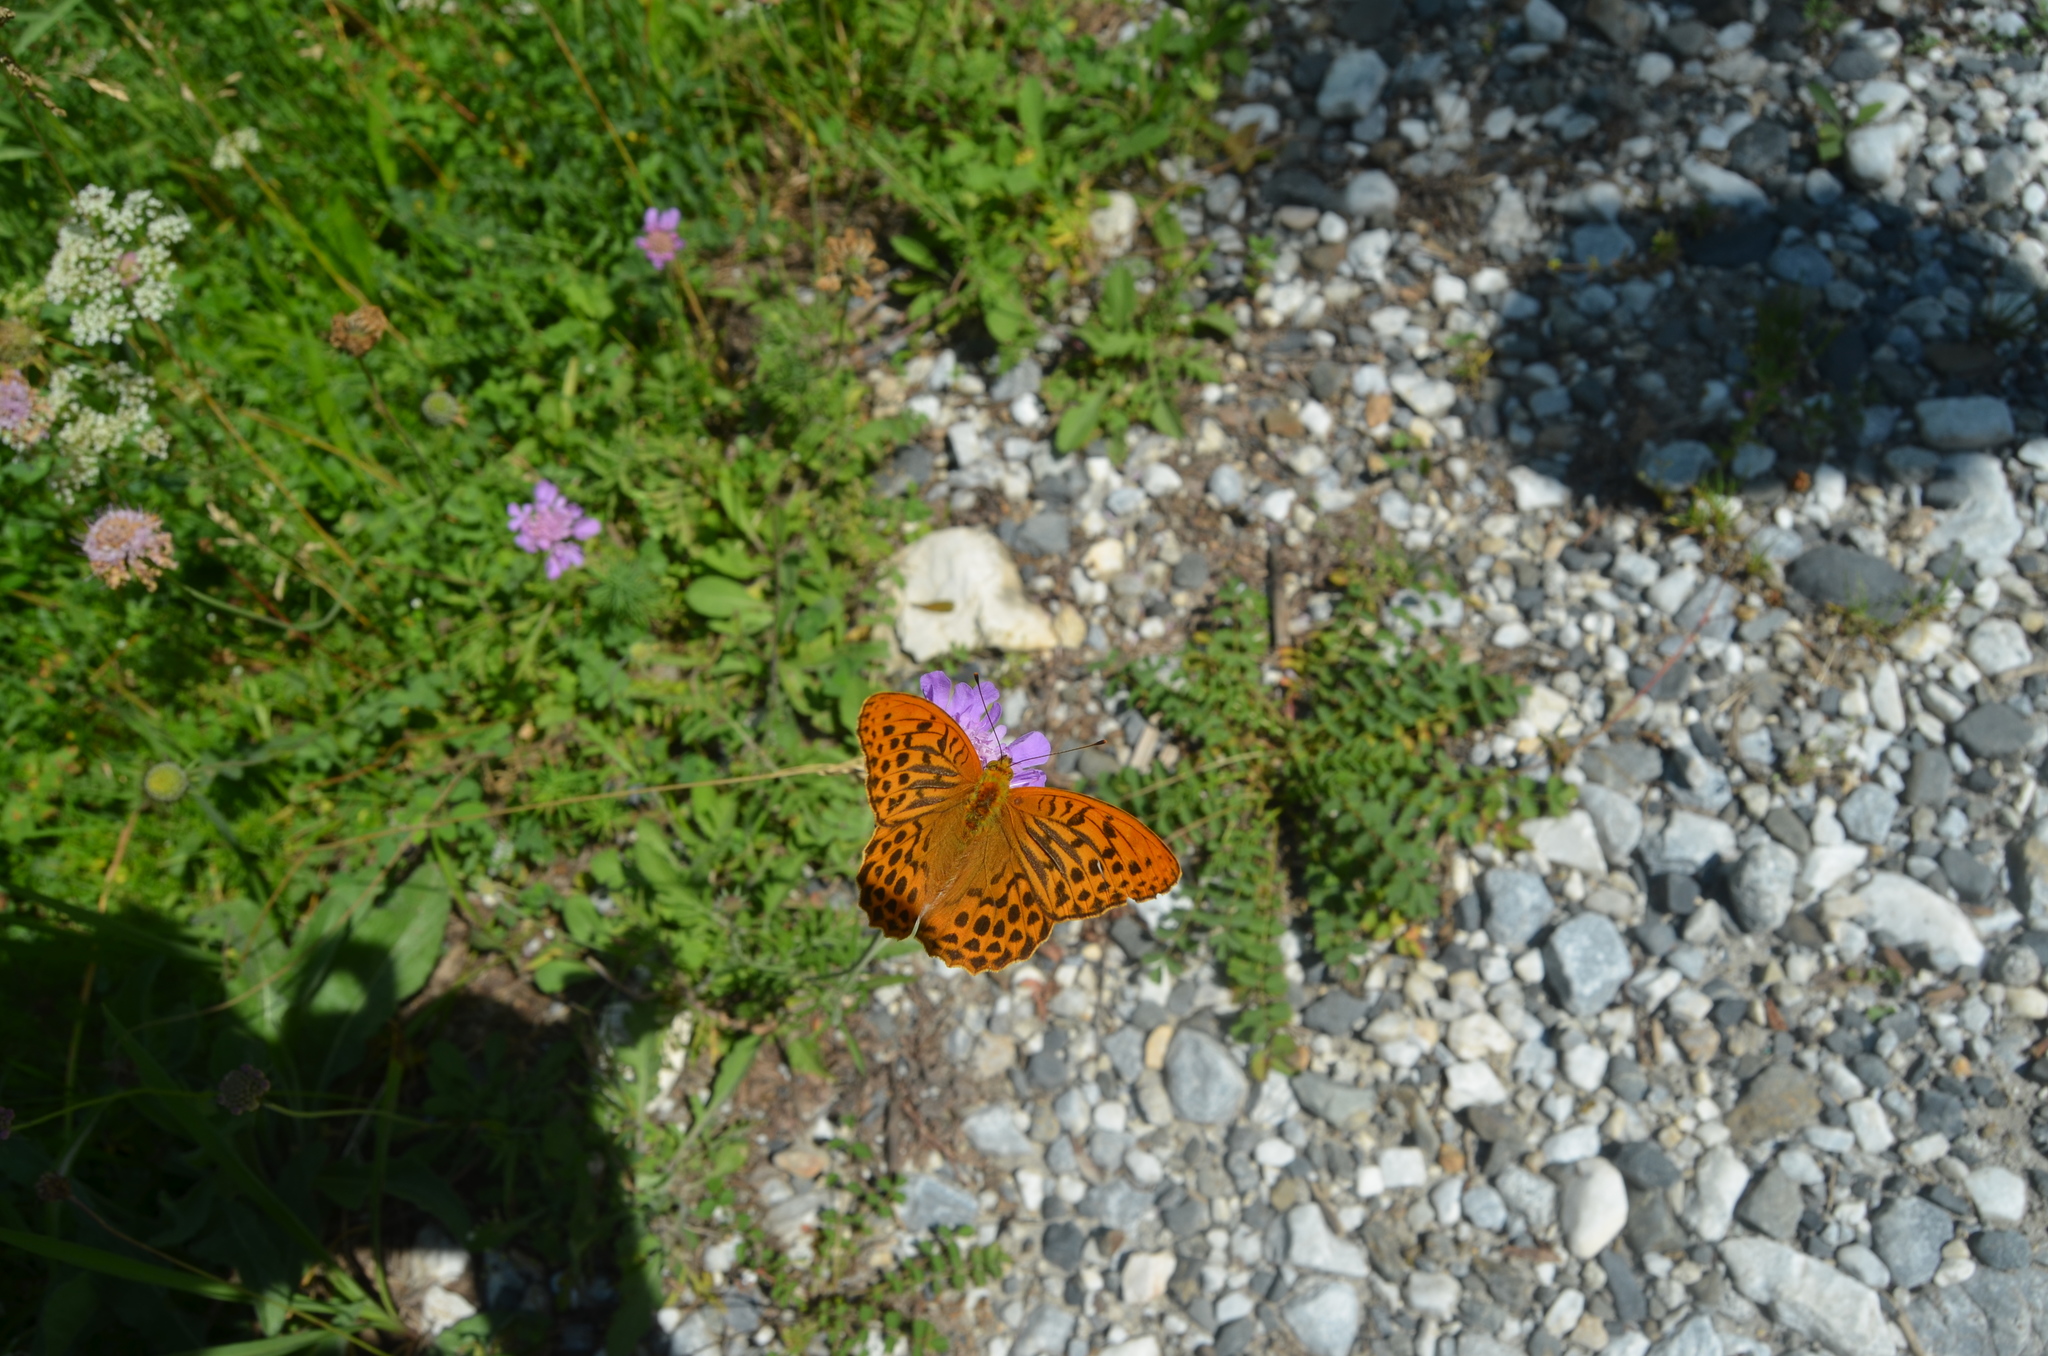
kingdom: Animalia
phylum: Arthropoda
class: Insecta
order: Lepidoptera
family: Nymphalidae
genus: Argynnis
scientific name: Argynnis paphia
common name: Silver-washed fritillary
